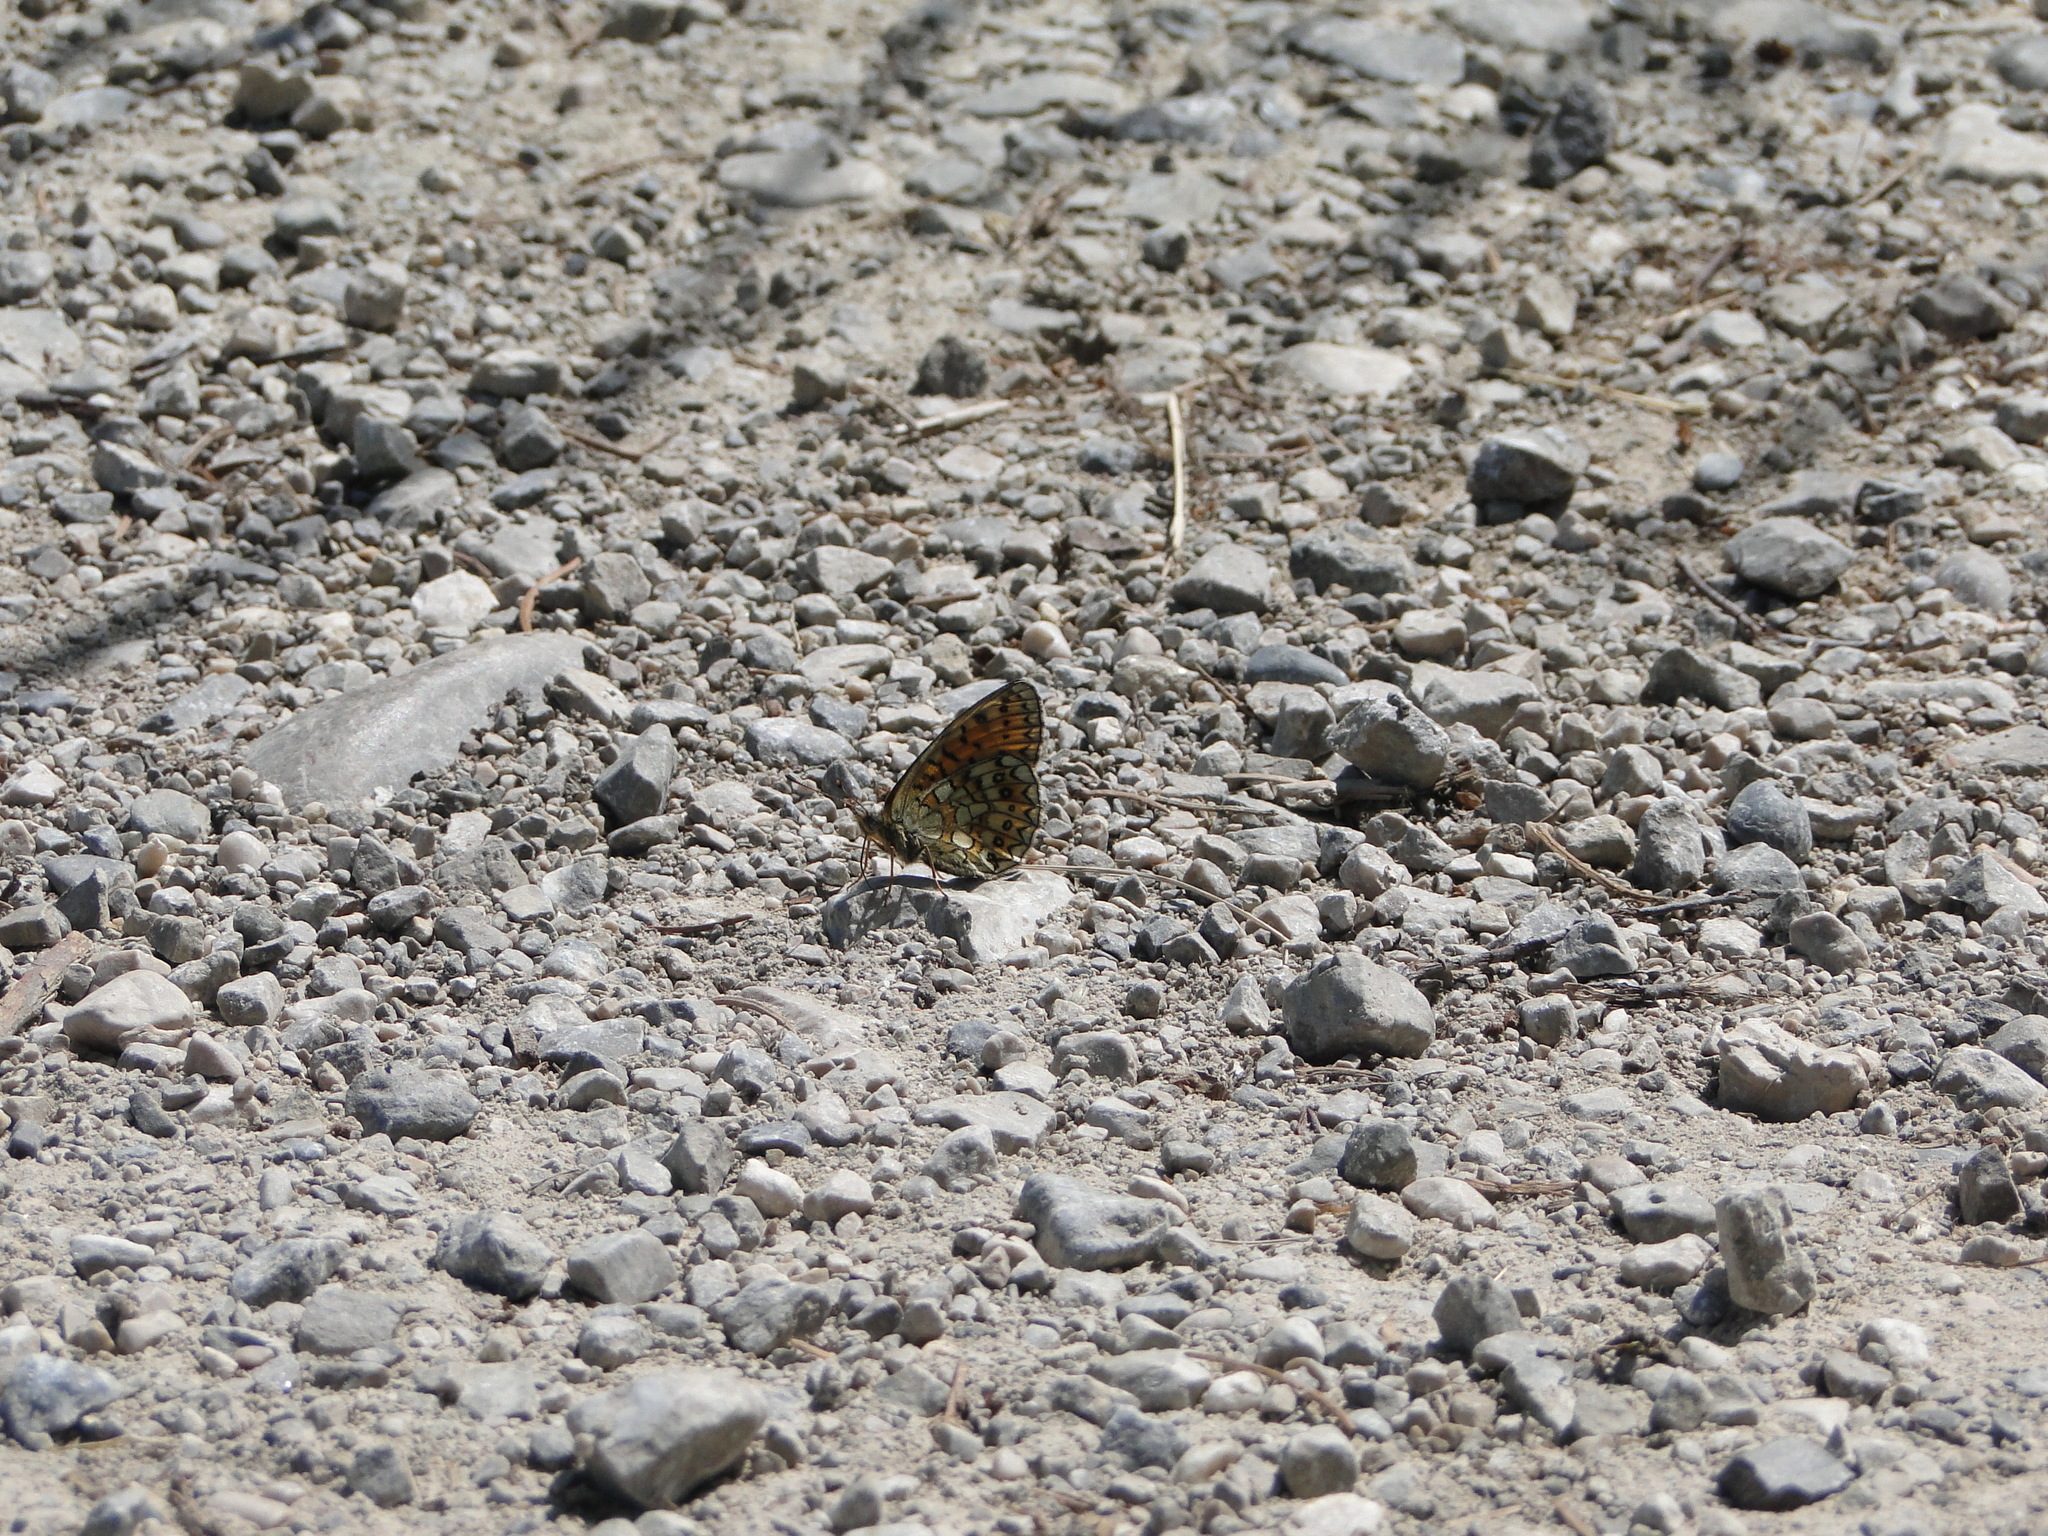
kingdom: Animalia
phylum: Arthropoda
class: Insecta
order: Lepidoptera
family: Nymphalidae
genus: Boloria
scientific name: Boloria eunomia
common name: Bog fritillary
